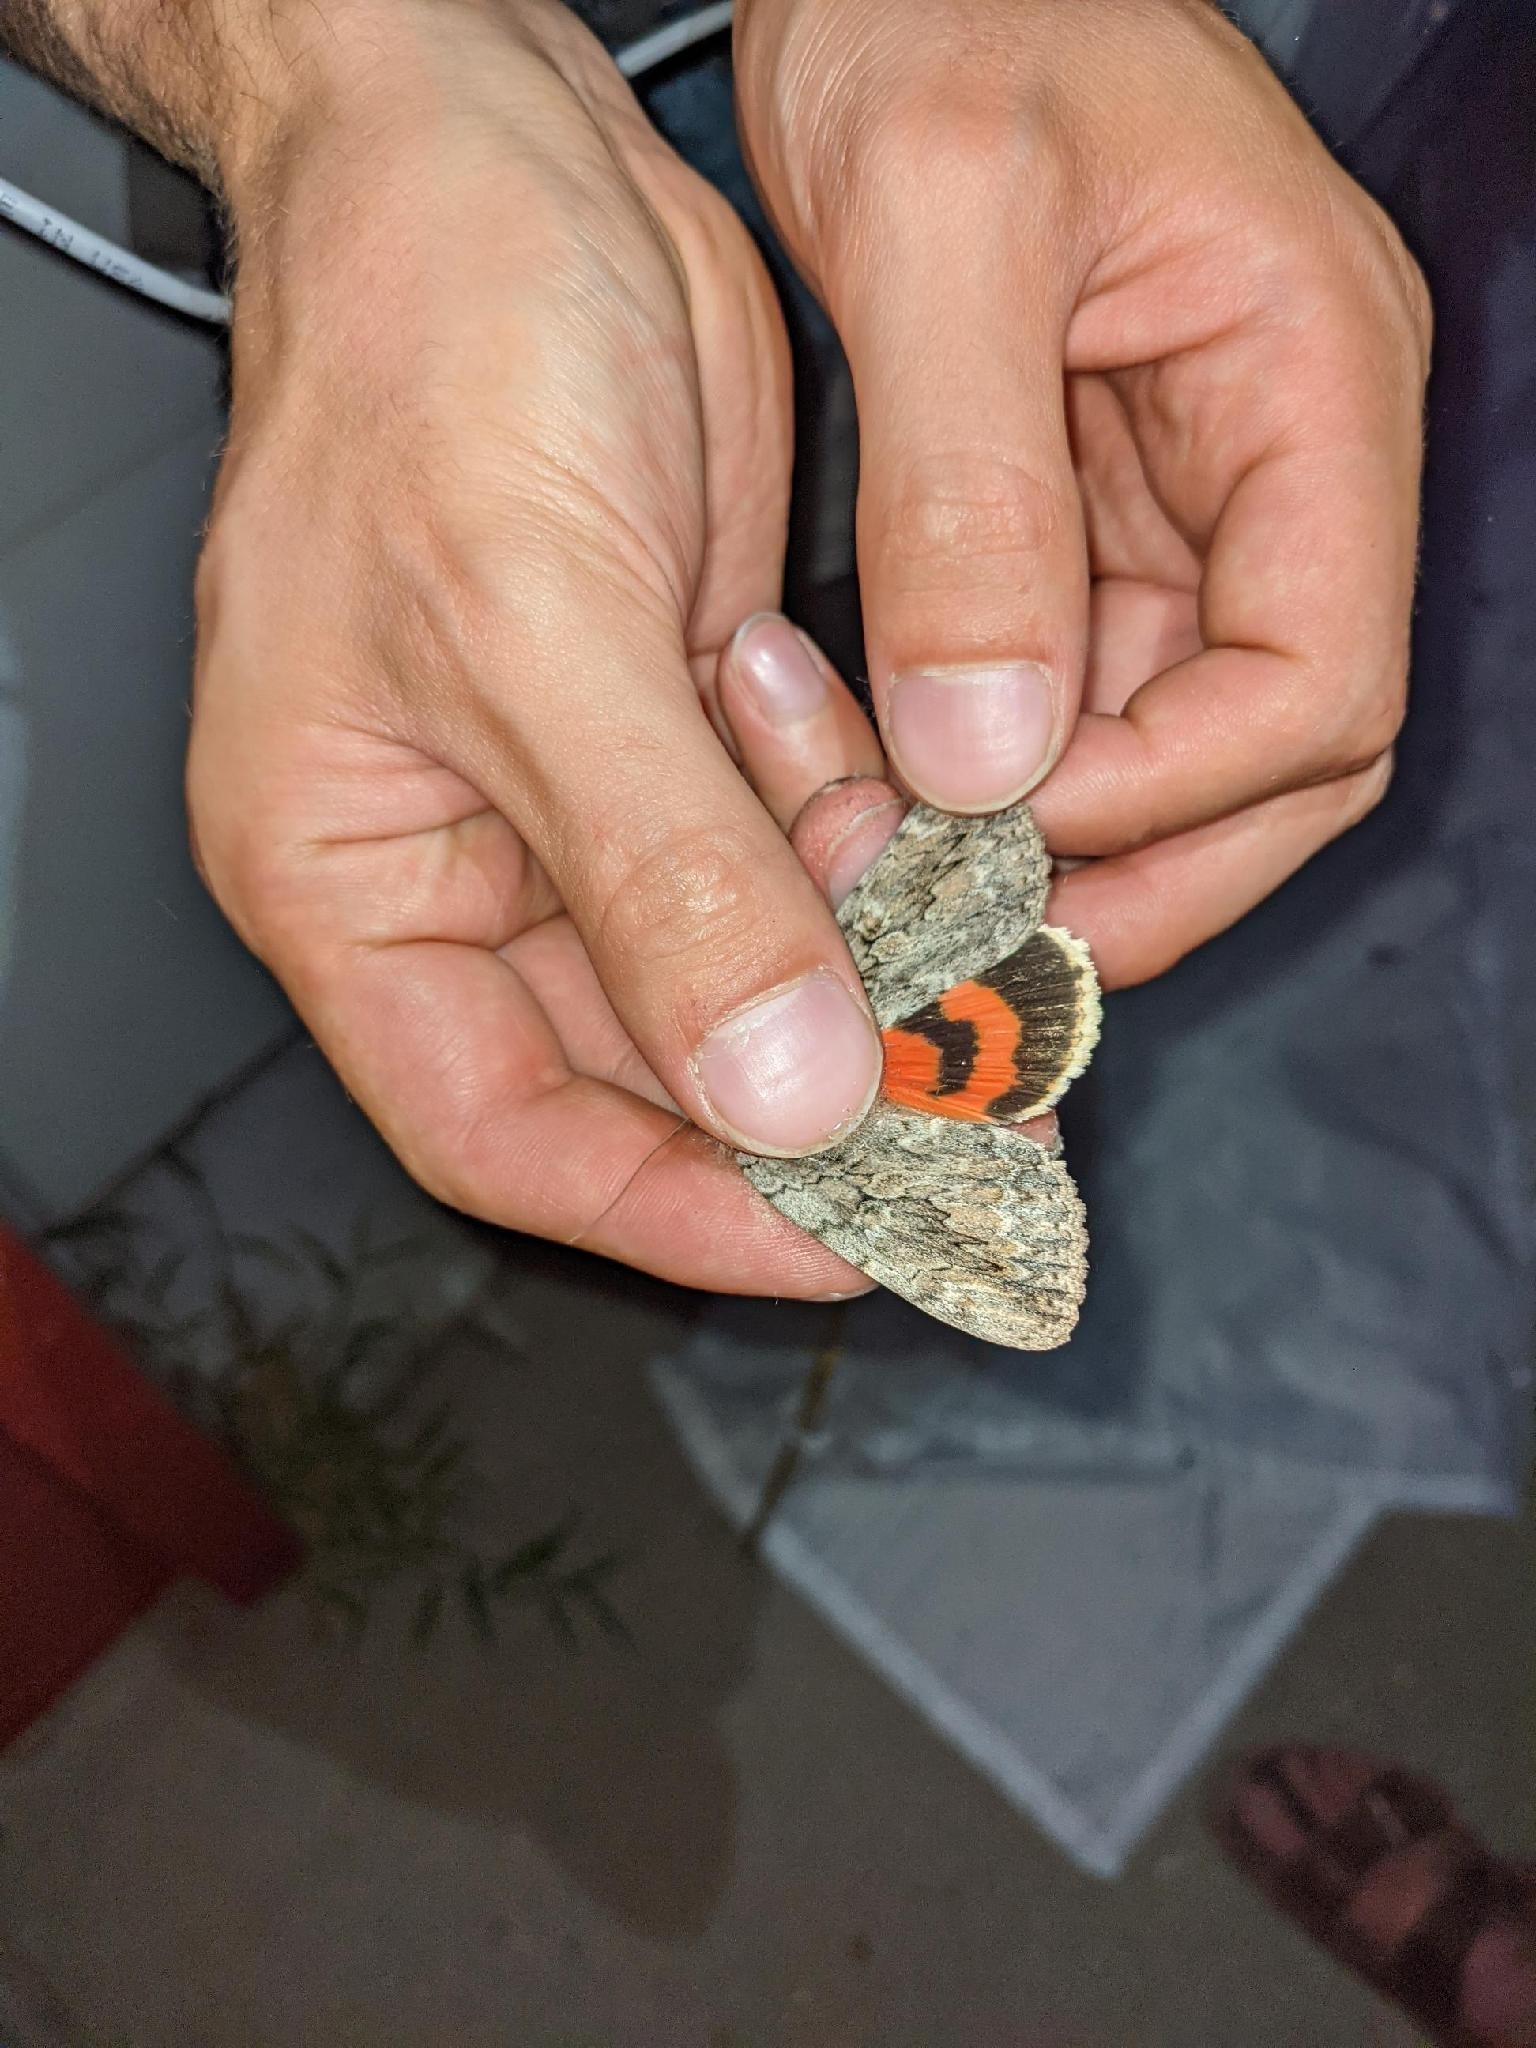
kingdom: Animalia
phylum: Arthropoda
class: Insecta
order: Lepidoptera
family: Erebidae
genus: Catocala
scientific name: Catocala amatrix
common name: Sweetheart underwing
